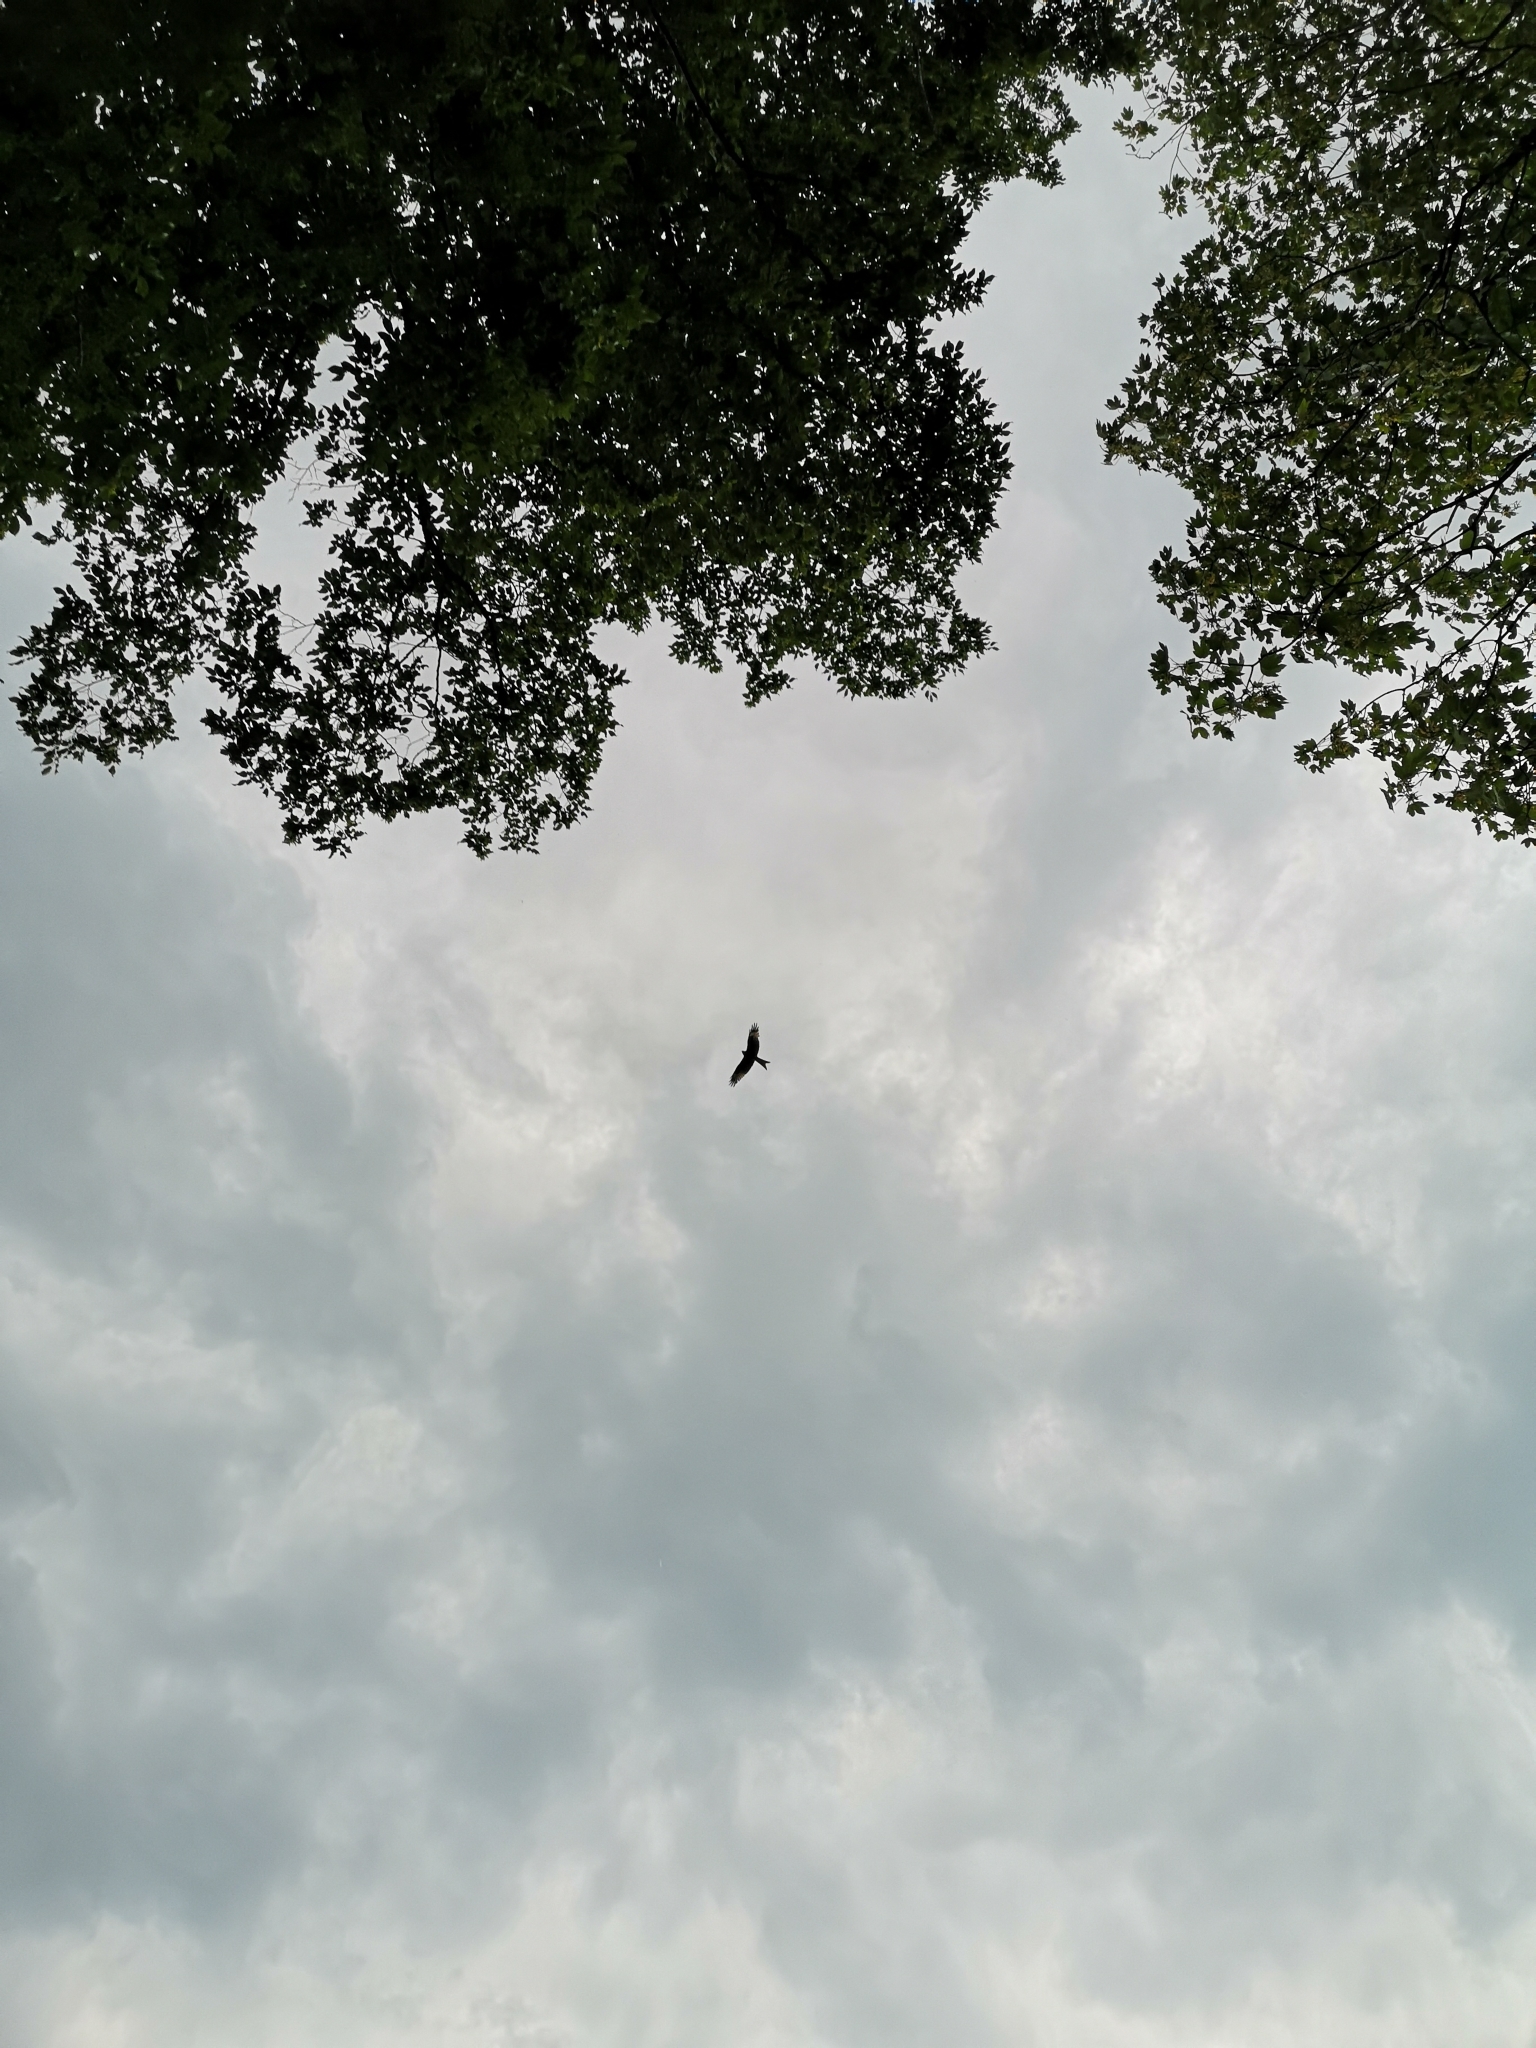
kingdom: Animalia
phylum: Chordata
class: Aves
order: Accipitriformes
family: Accipitridae
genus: Milvus
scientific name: Milvus milvus
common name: Red kite
